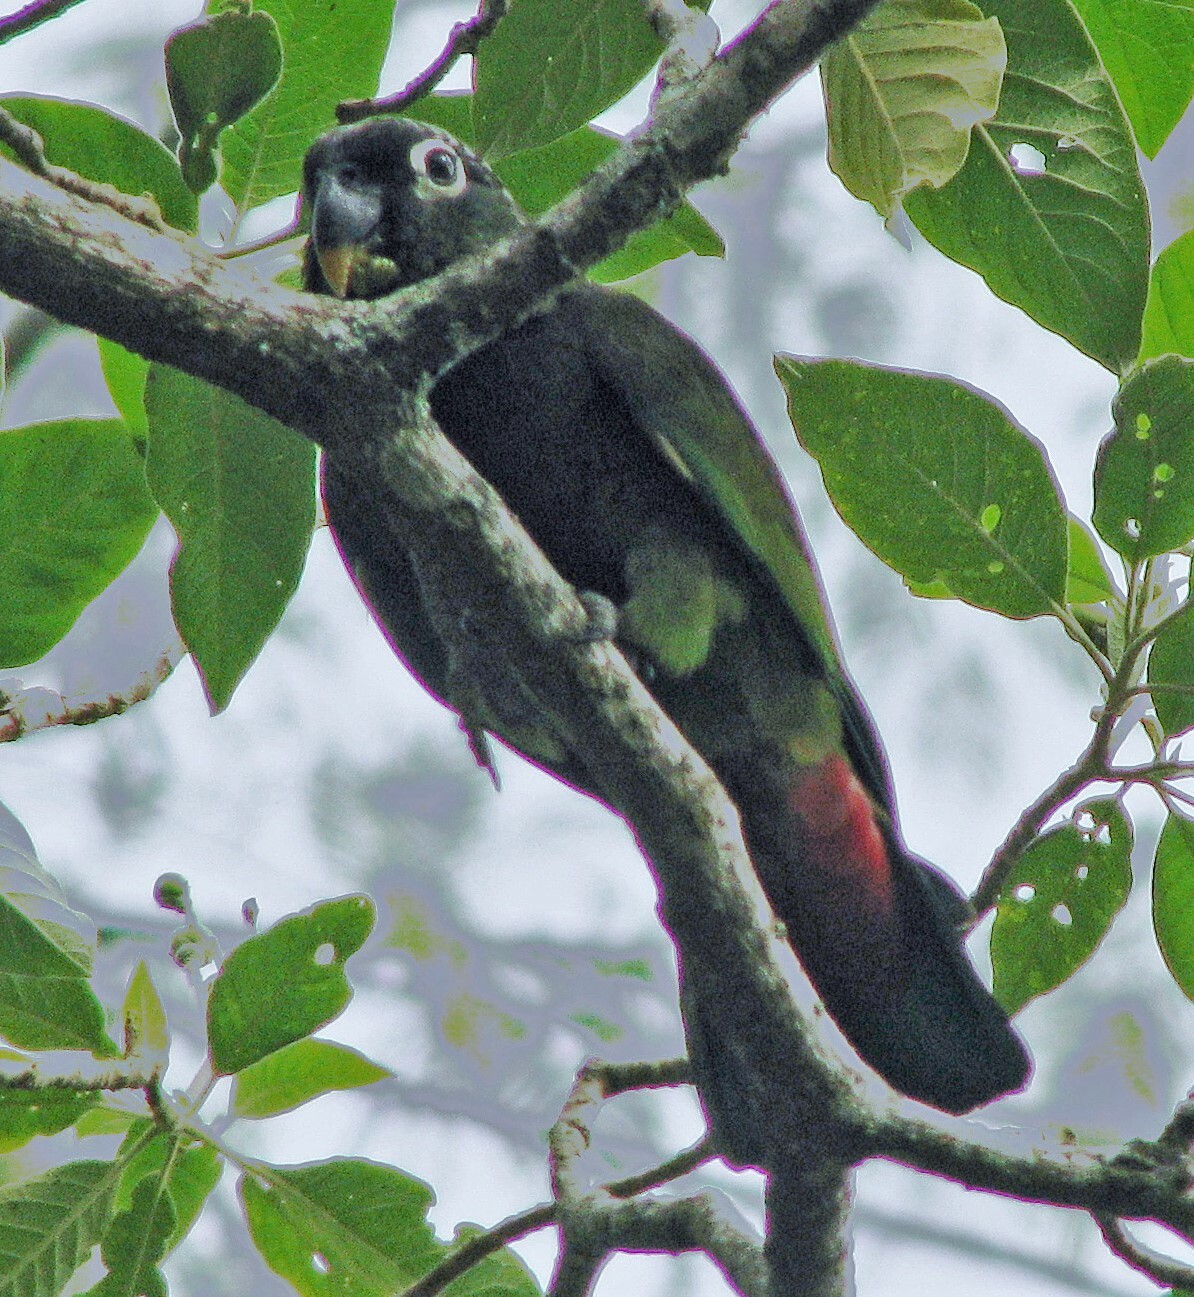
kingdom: Animalia
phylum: Chordata
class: Aves
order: Psittaciformes
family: Psittacidae
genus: Pionus
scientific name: Pionus maximiliani
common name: Scaly-headed parrot
